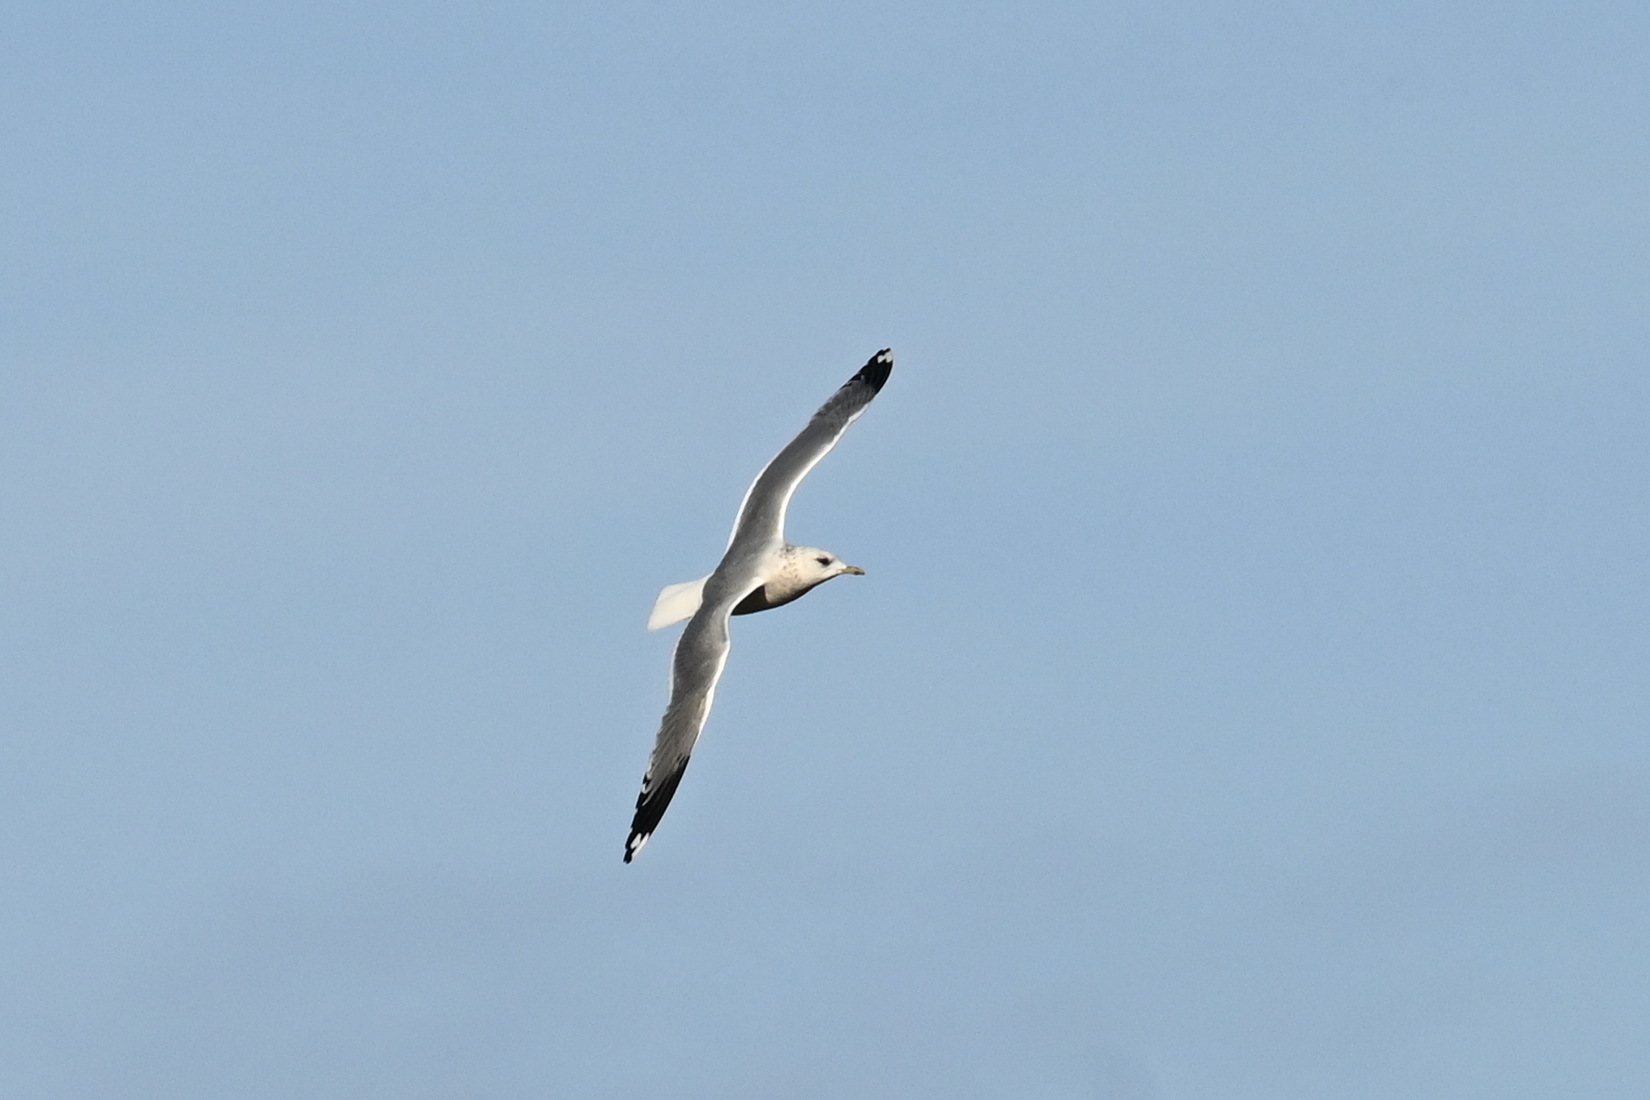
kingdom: Animalia
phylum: Chordata
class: Aves
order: Charadriiformes
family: Laridae
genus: Larus
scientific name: Larus canus
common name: Mew gull
